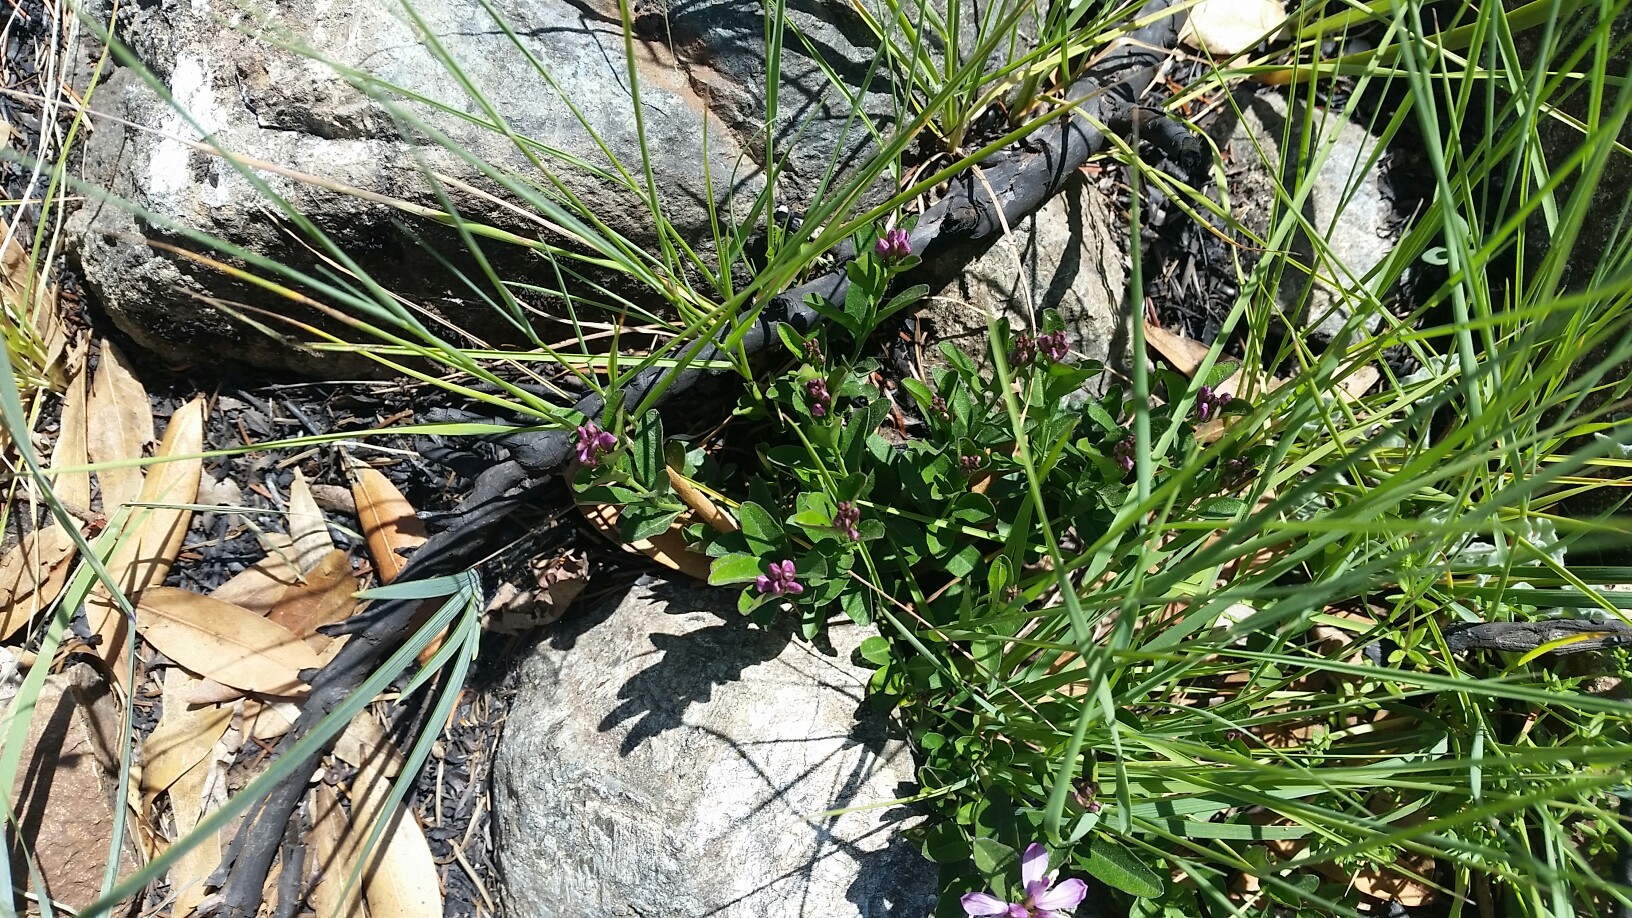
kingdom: Plantae
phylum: Tracheophyta
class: Magnoliopsida
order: Fabales
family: Polygalaceae
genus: Rhinotropis
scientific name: Rhinotropis californica
